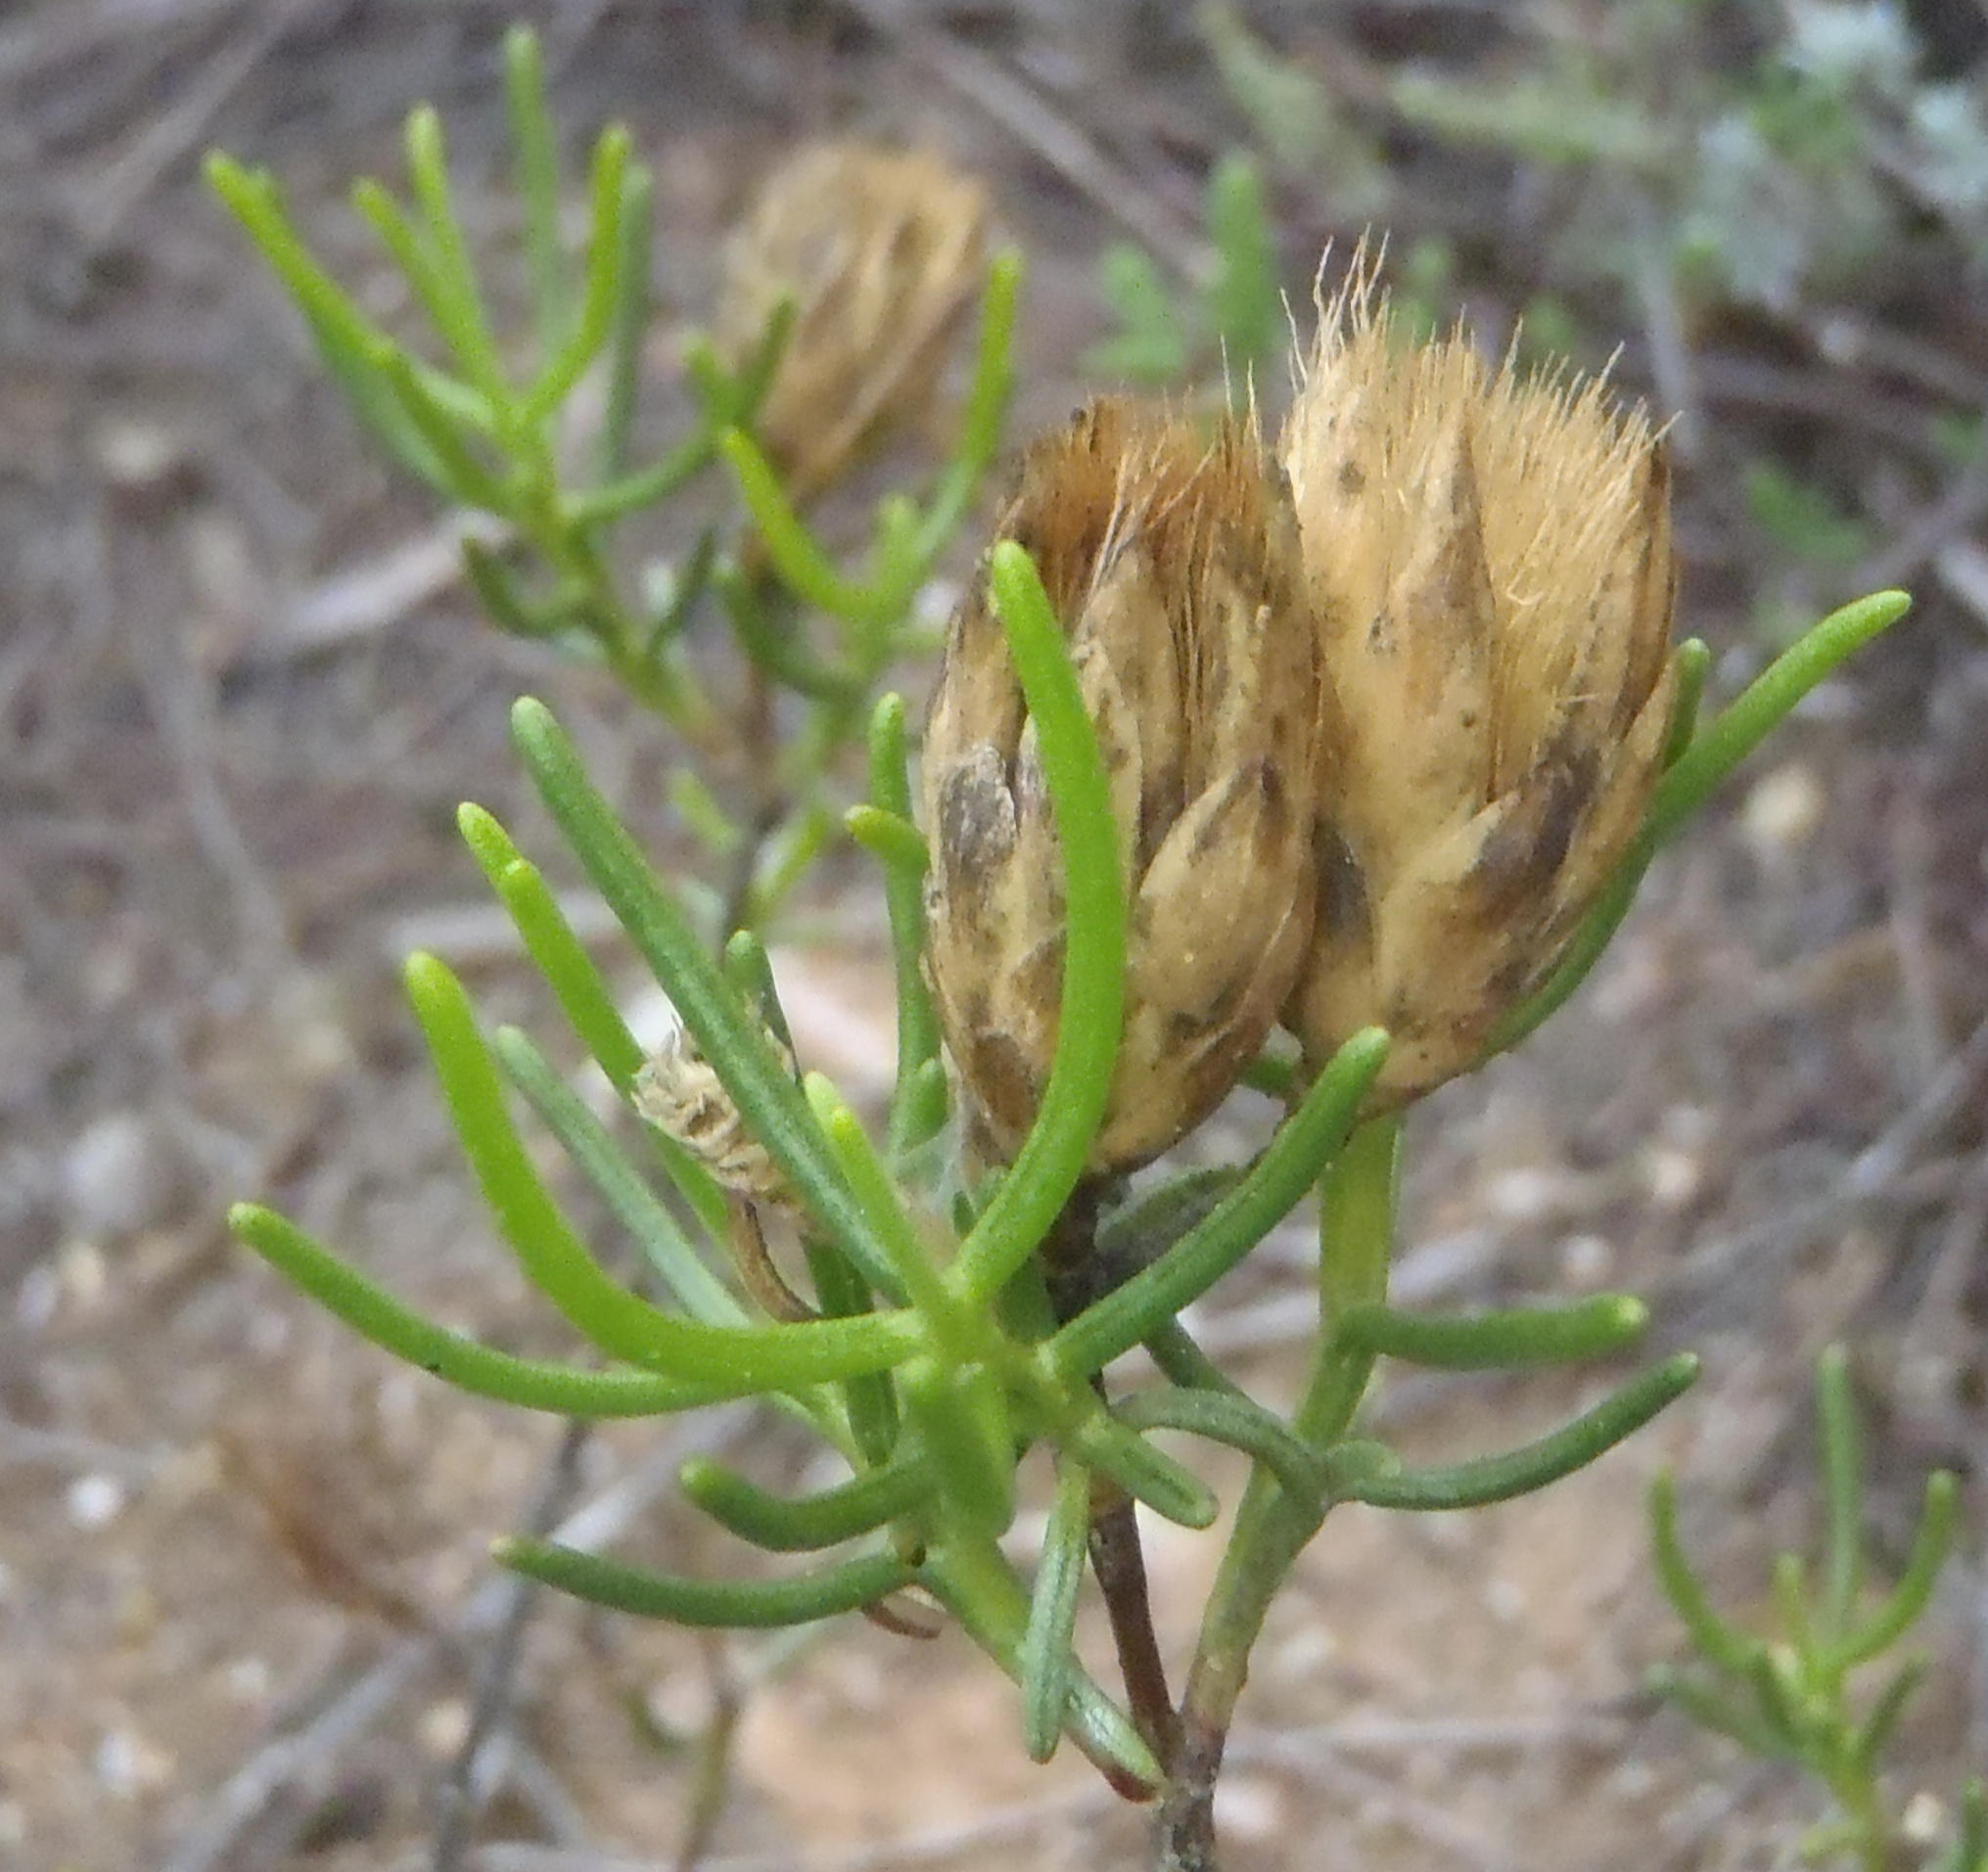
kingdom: Plantae
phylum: Tracheophyta
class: Magnoliopsida
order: Asterales
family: Asteraceae
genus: Pteronia
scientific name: Pteronia flexicaulis
